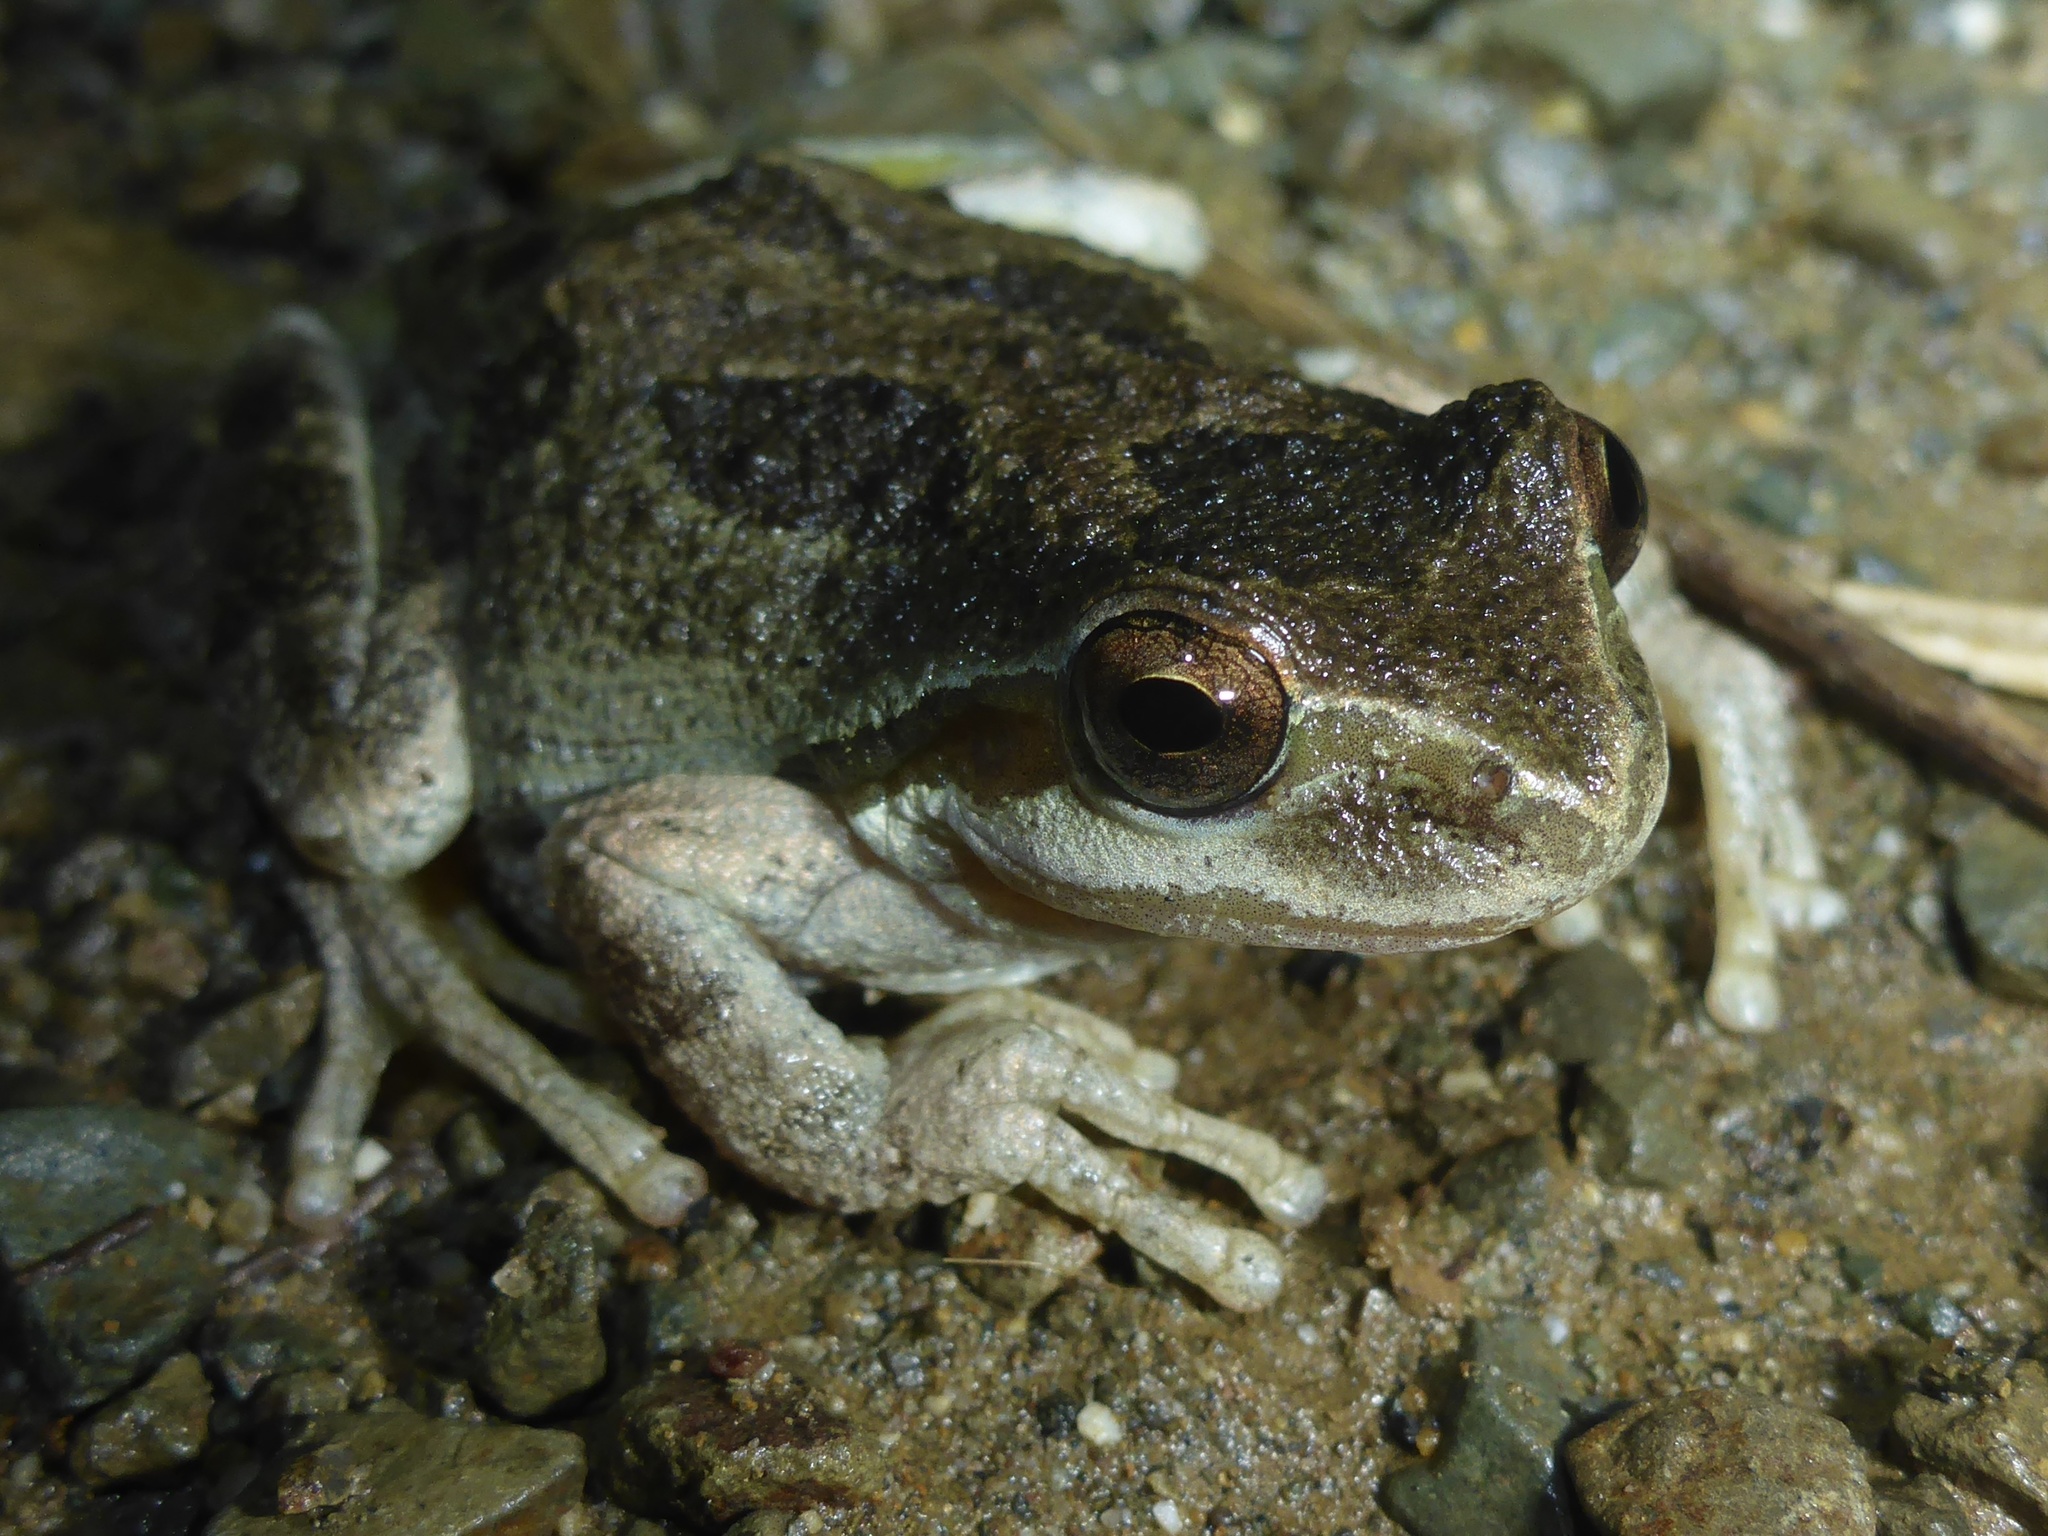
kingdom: Animalia
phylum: Chordata
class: Amphibia
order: Anura
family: Hylidae
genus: Pseudacris
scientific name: Pseudacris regilla
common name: Pacific chorus frog
